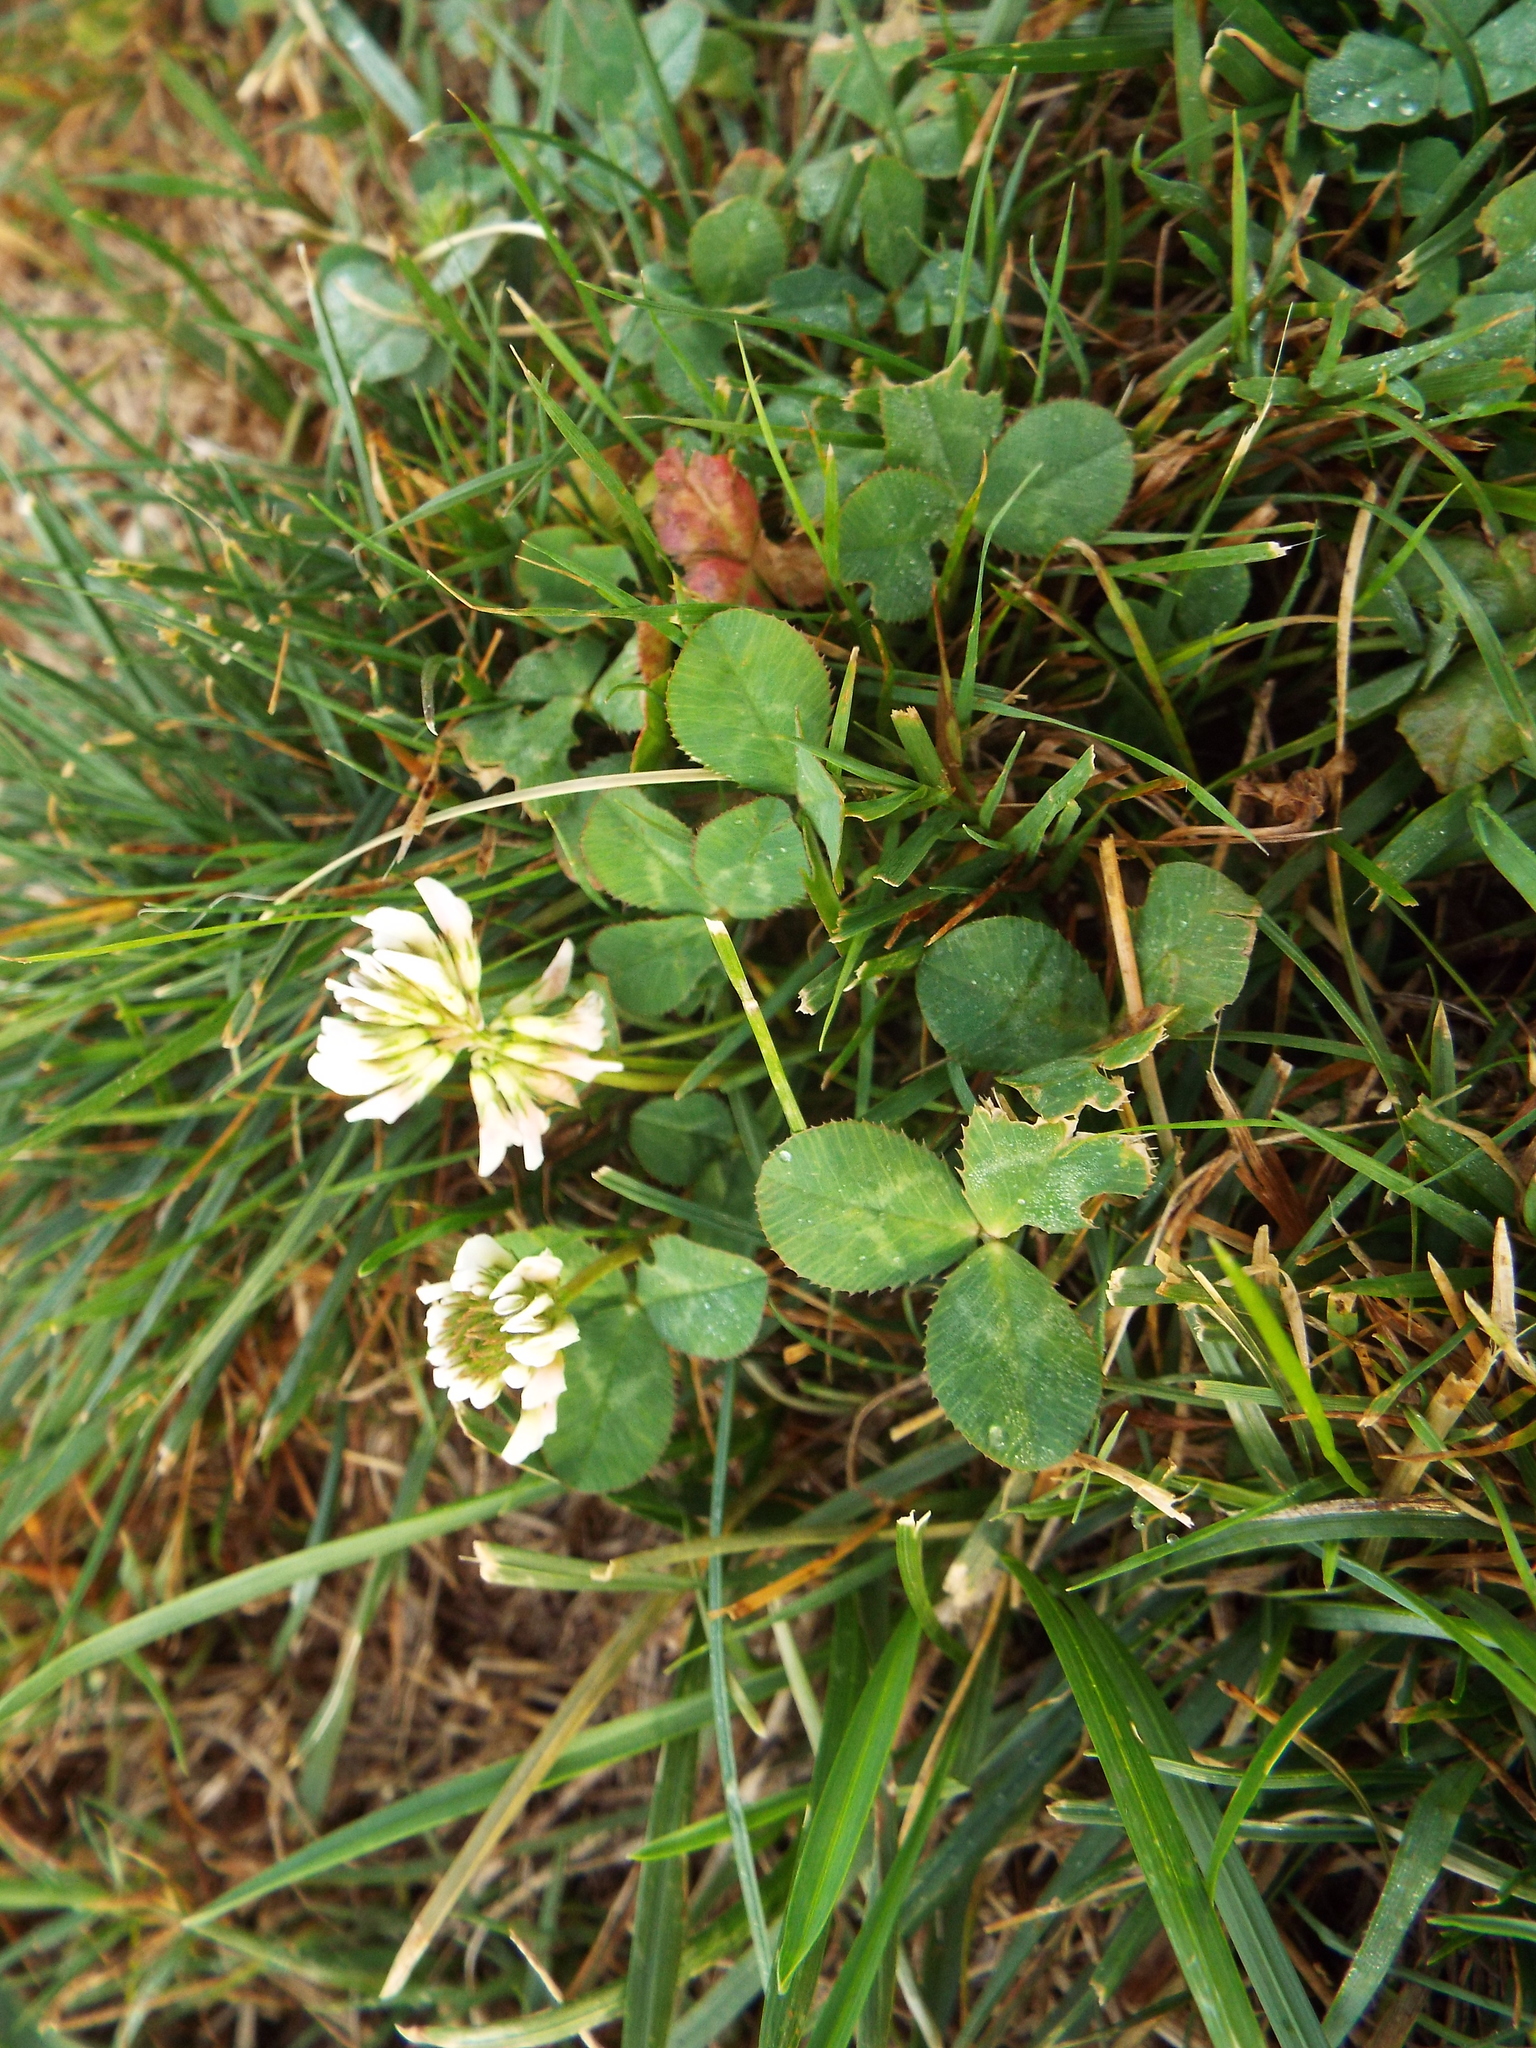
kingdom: Plantae
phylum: Tracheophyta
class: Magnoliopsida
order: Fabales
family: Fabaceae
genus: Trifolium
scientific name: Trifolium repens
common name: White clover
